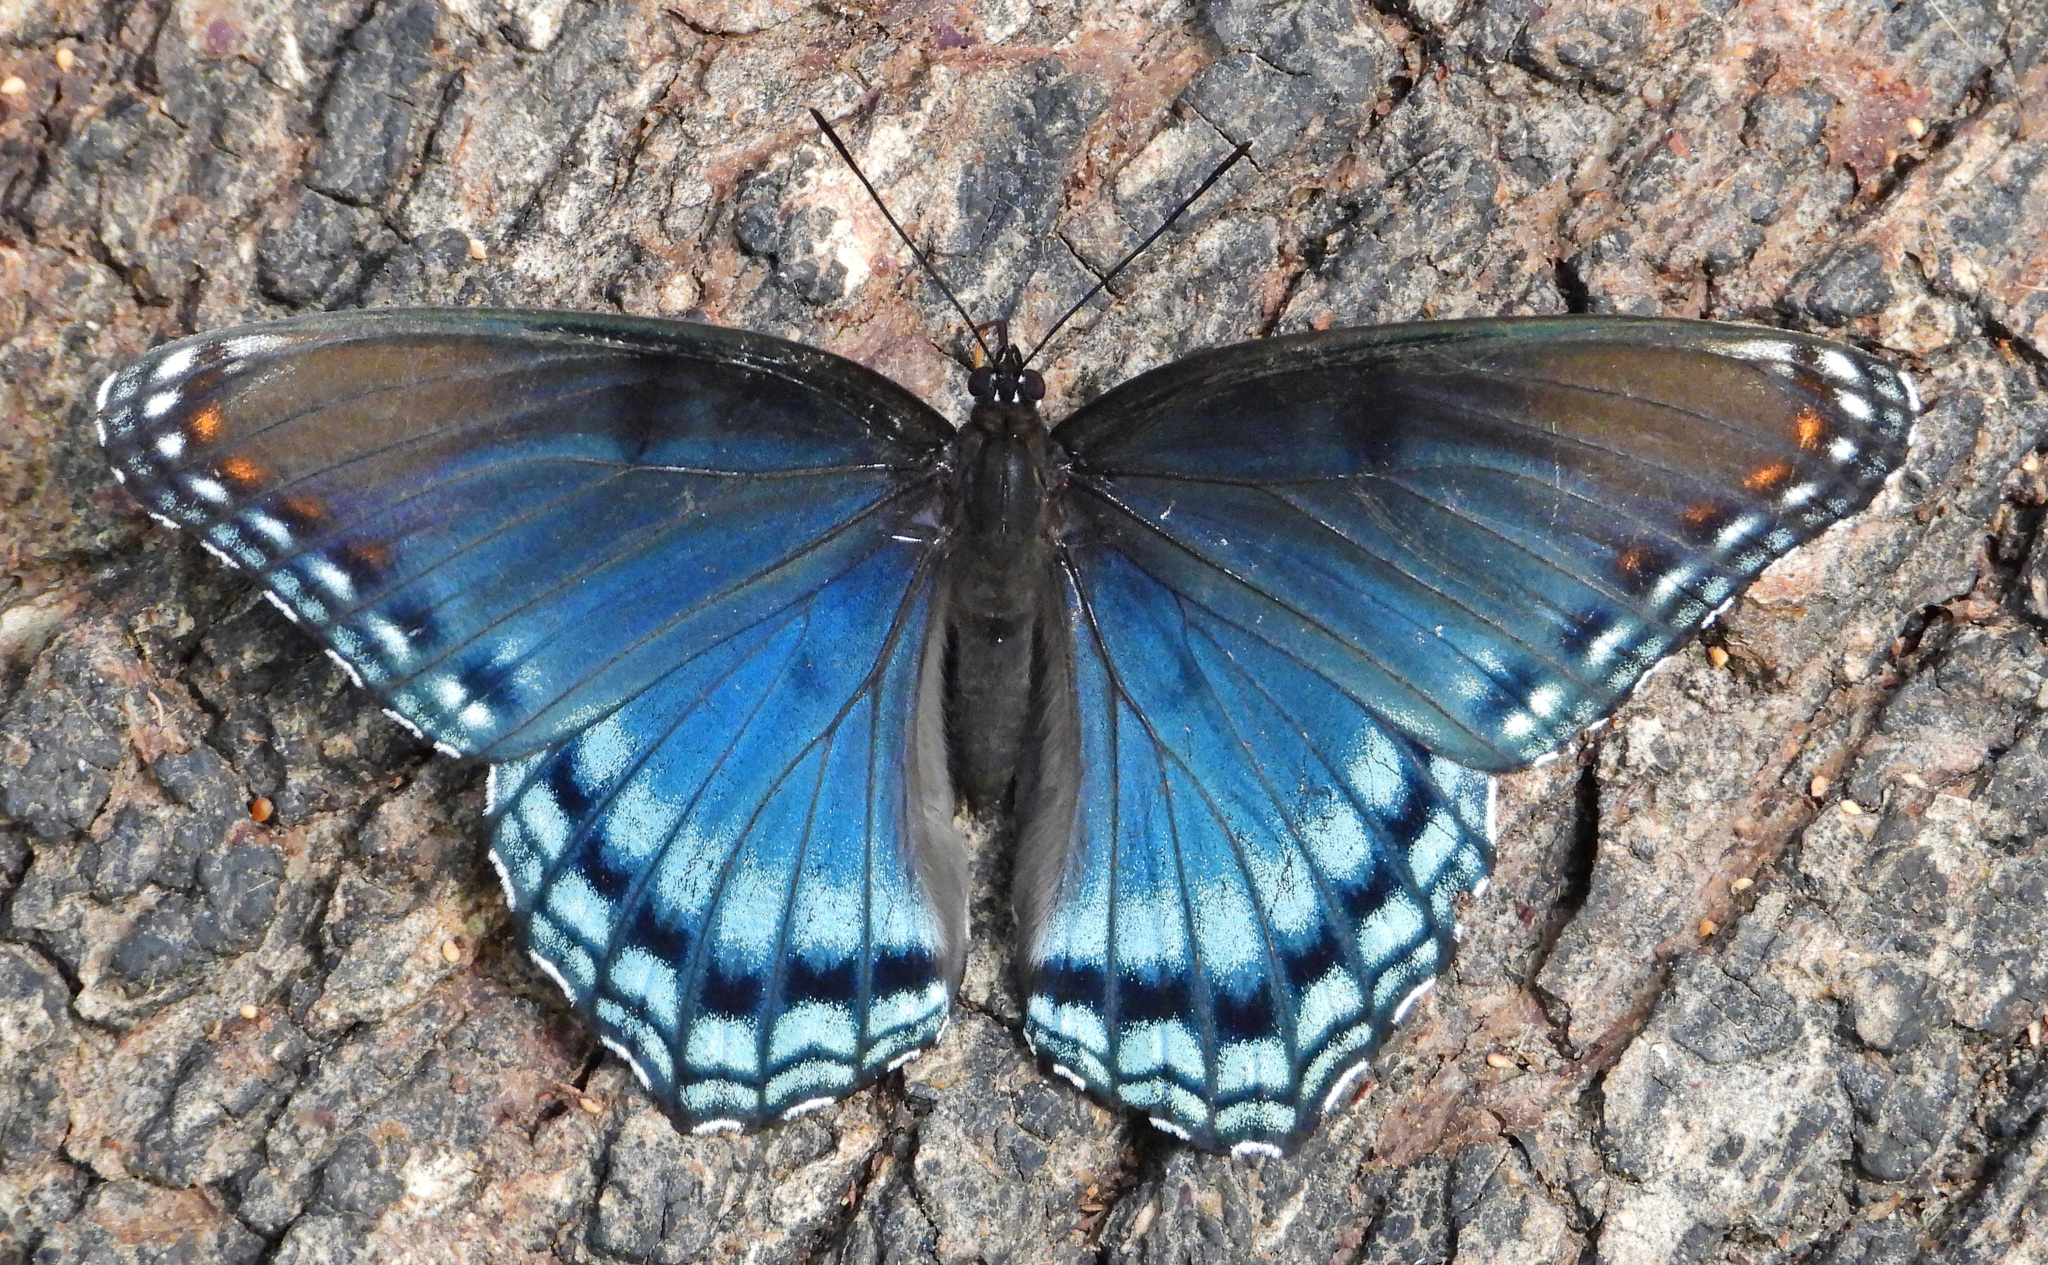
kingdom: Animalia
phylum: Arthropoda
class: Insecta
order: Lepidoptera
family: Nymphalidae
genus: Limenitis
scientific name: Limenitis astyanax
